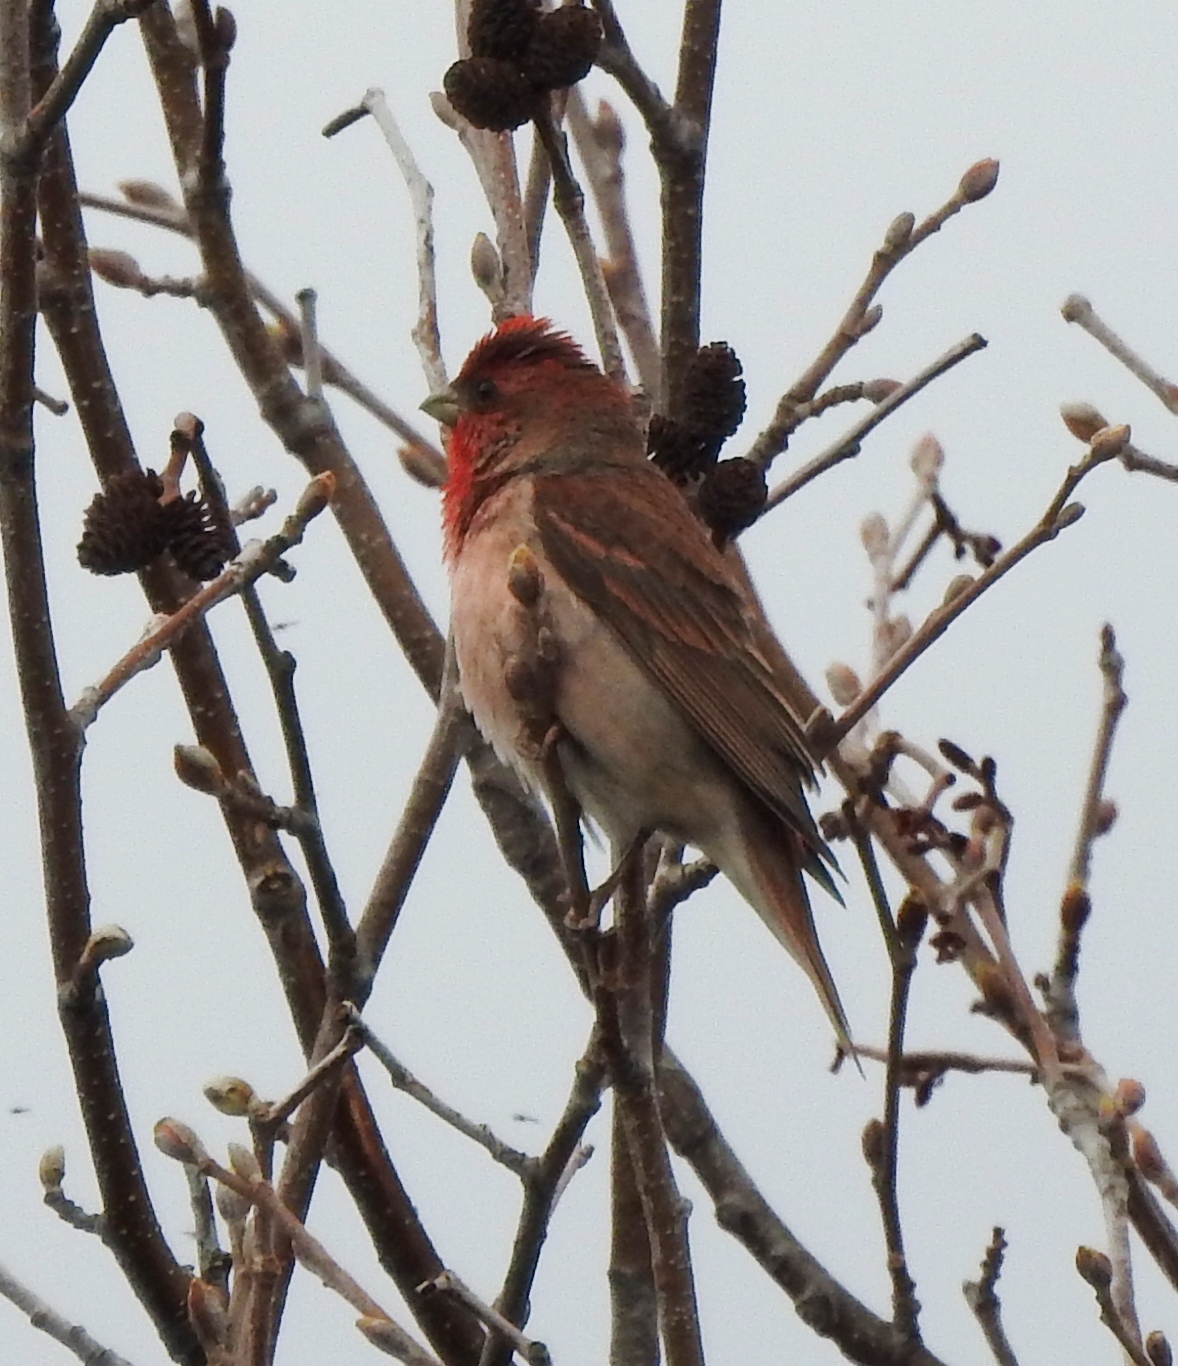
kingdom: Animalia
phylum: Chordata
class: Aves
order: Passeriformes
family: Fringillidae
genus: Carpodacus
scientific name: Carpodacus erythrinus
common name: Common rosefinch
